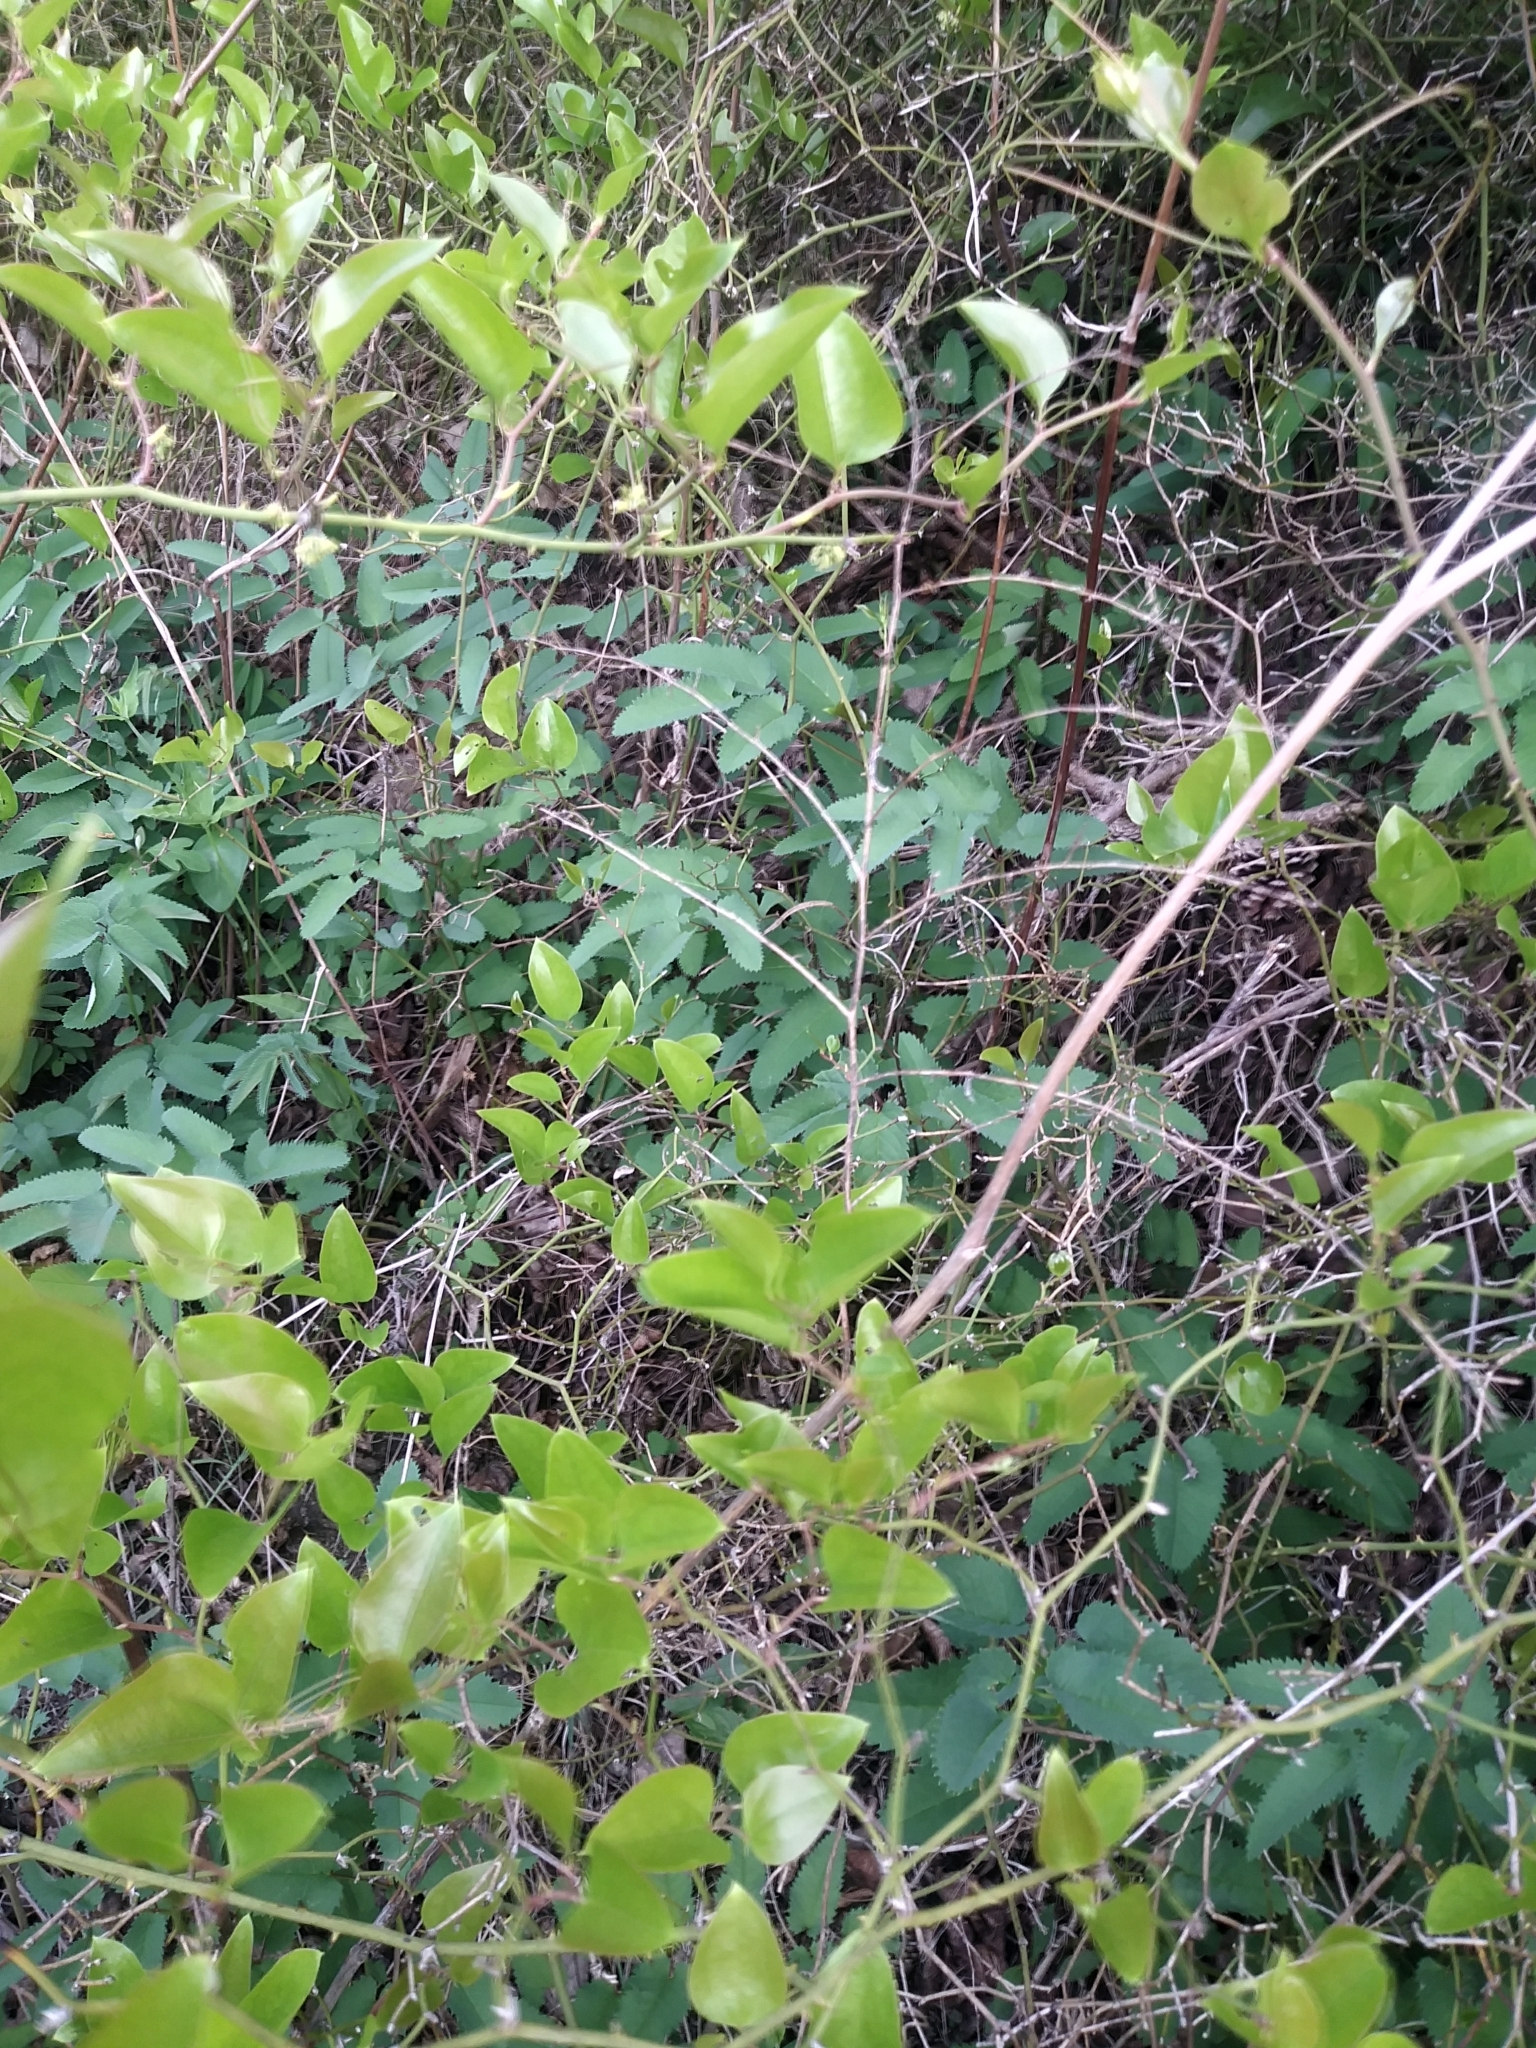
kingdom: Plantae
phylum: Tracheophyta
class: Magnoliopsida
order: Rosales
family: Rosaceae
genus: Sanguisorba
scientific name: Sanguisorba canadensis
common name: White burnet
